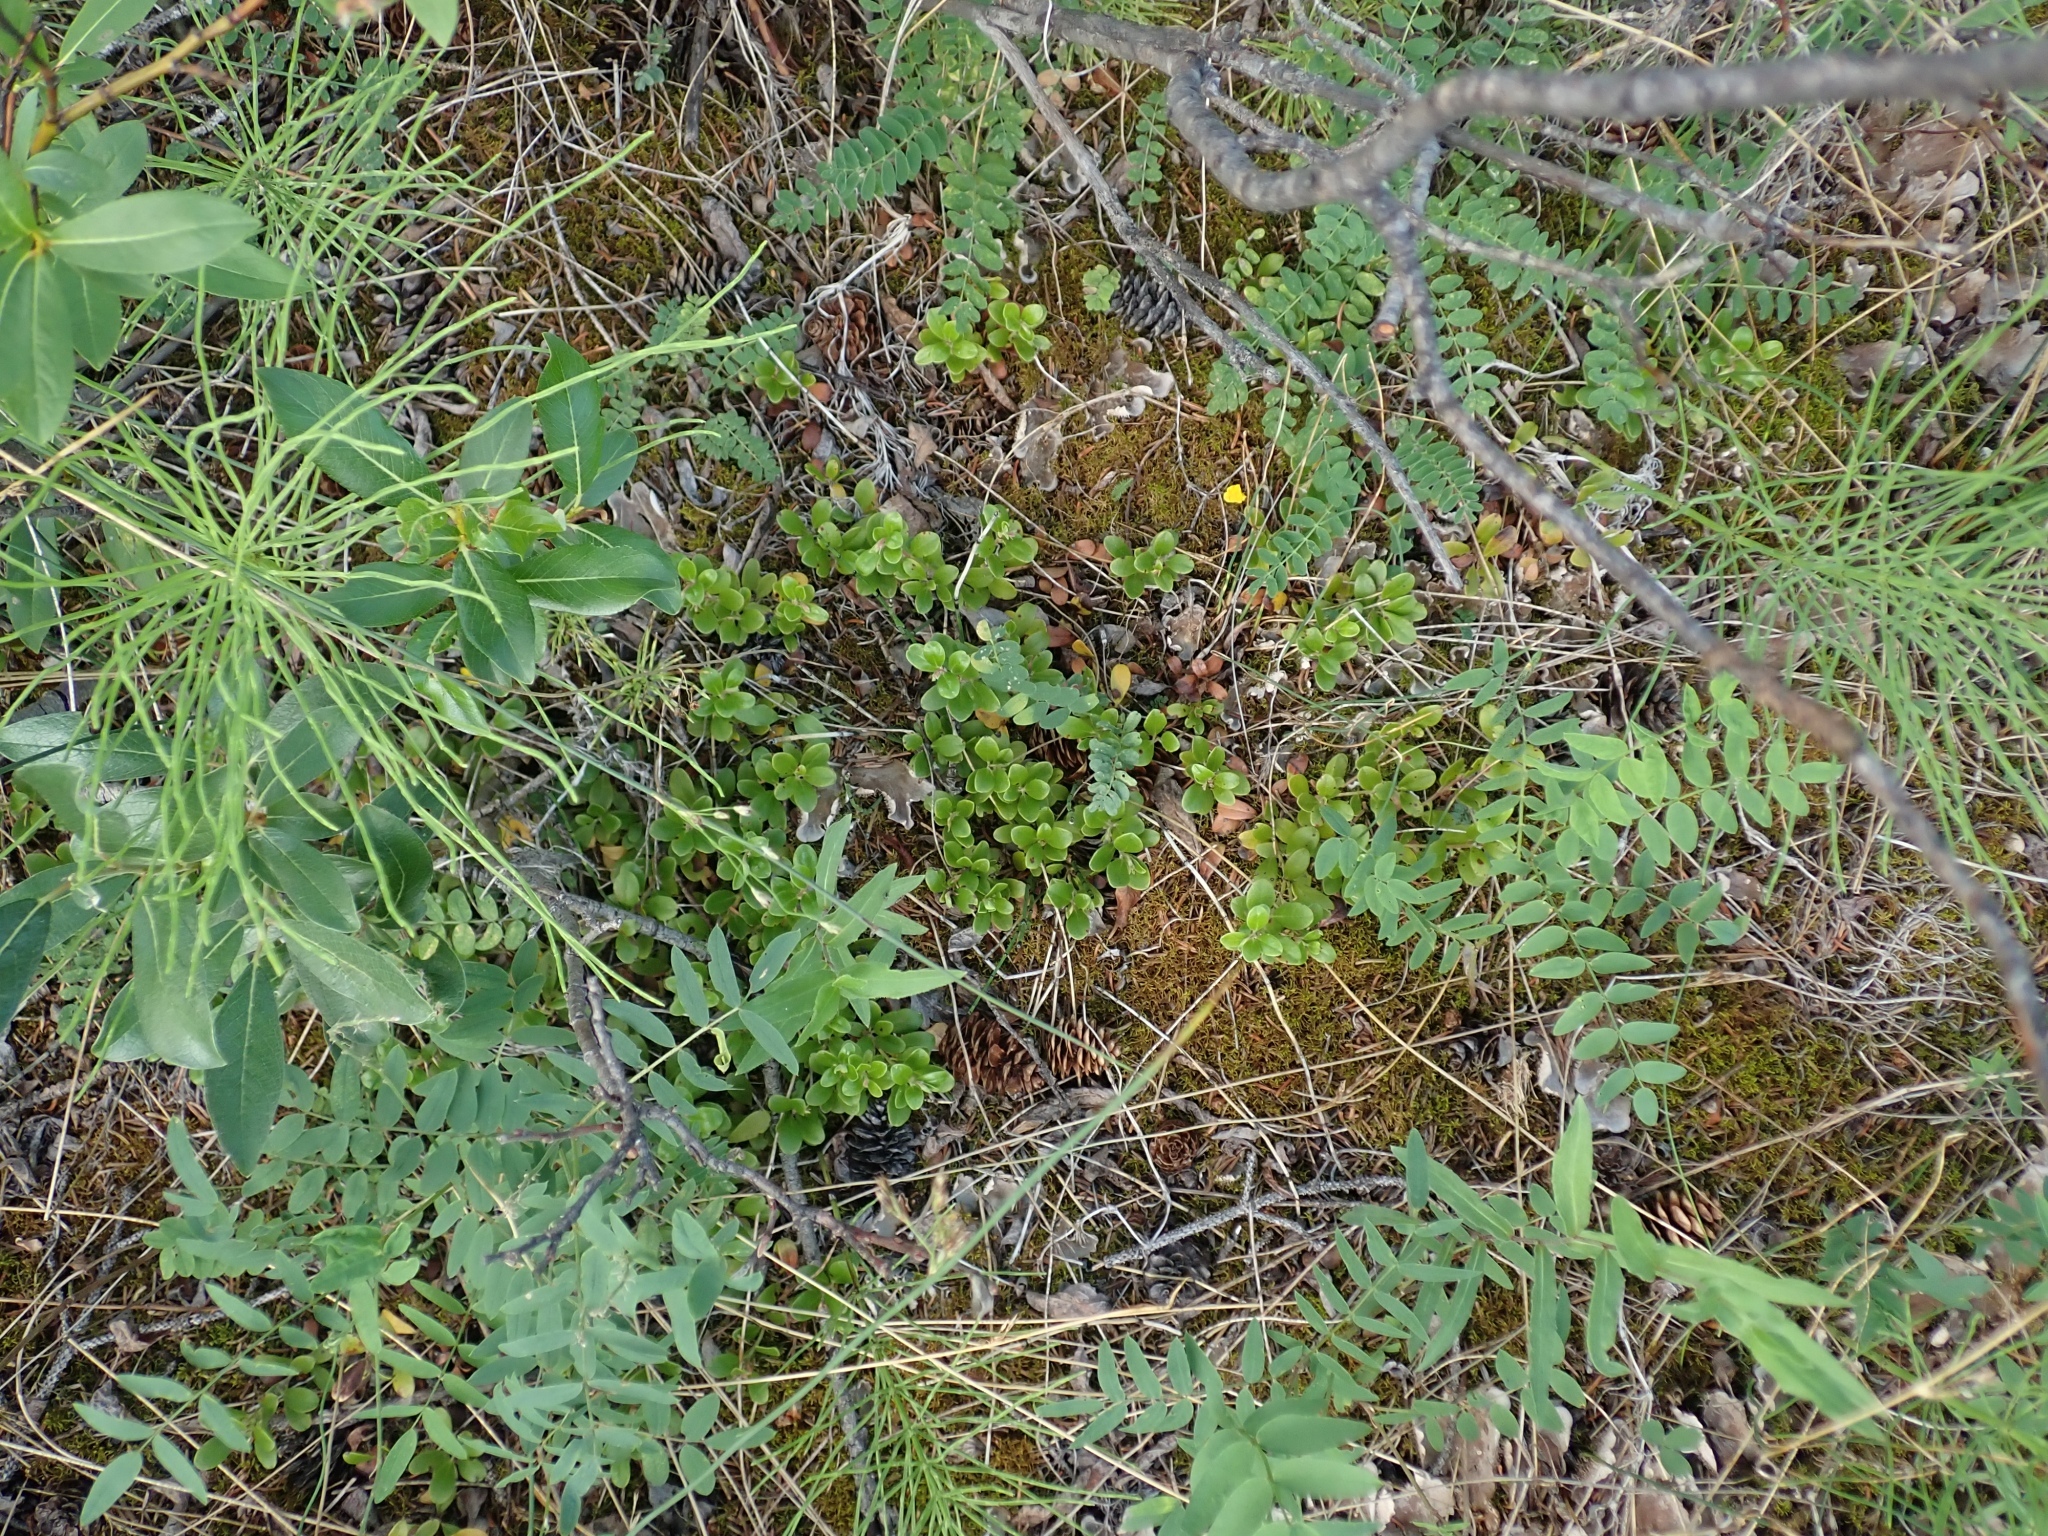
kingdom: Plantae
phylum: Tracheophyta
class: Magnoliopsida
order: Ericales
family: Ericaceae
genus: Arctostaphylos
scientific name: Arctostaphylos uva-ursi
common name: Bearberry
